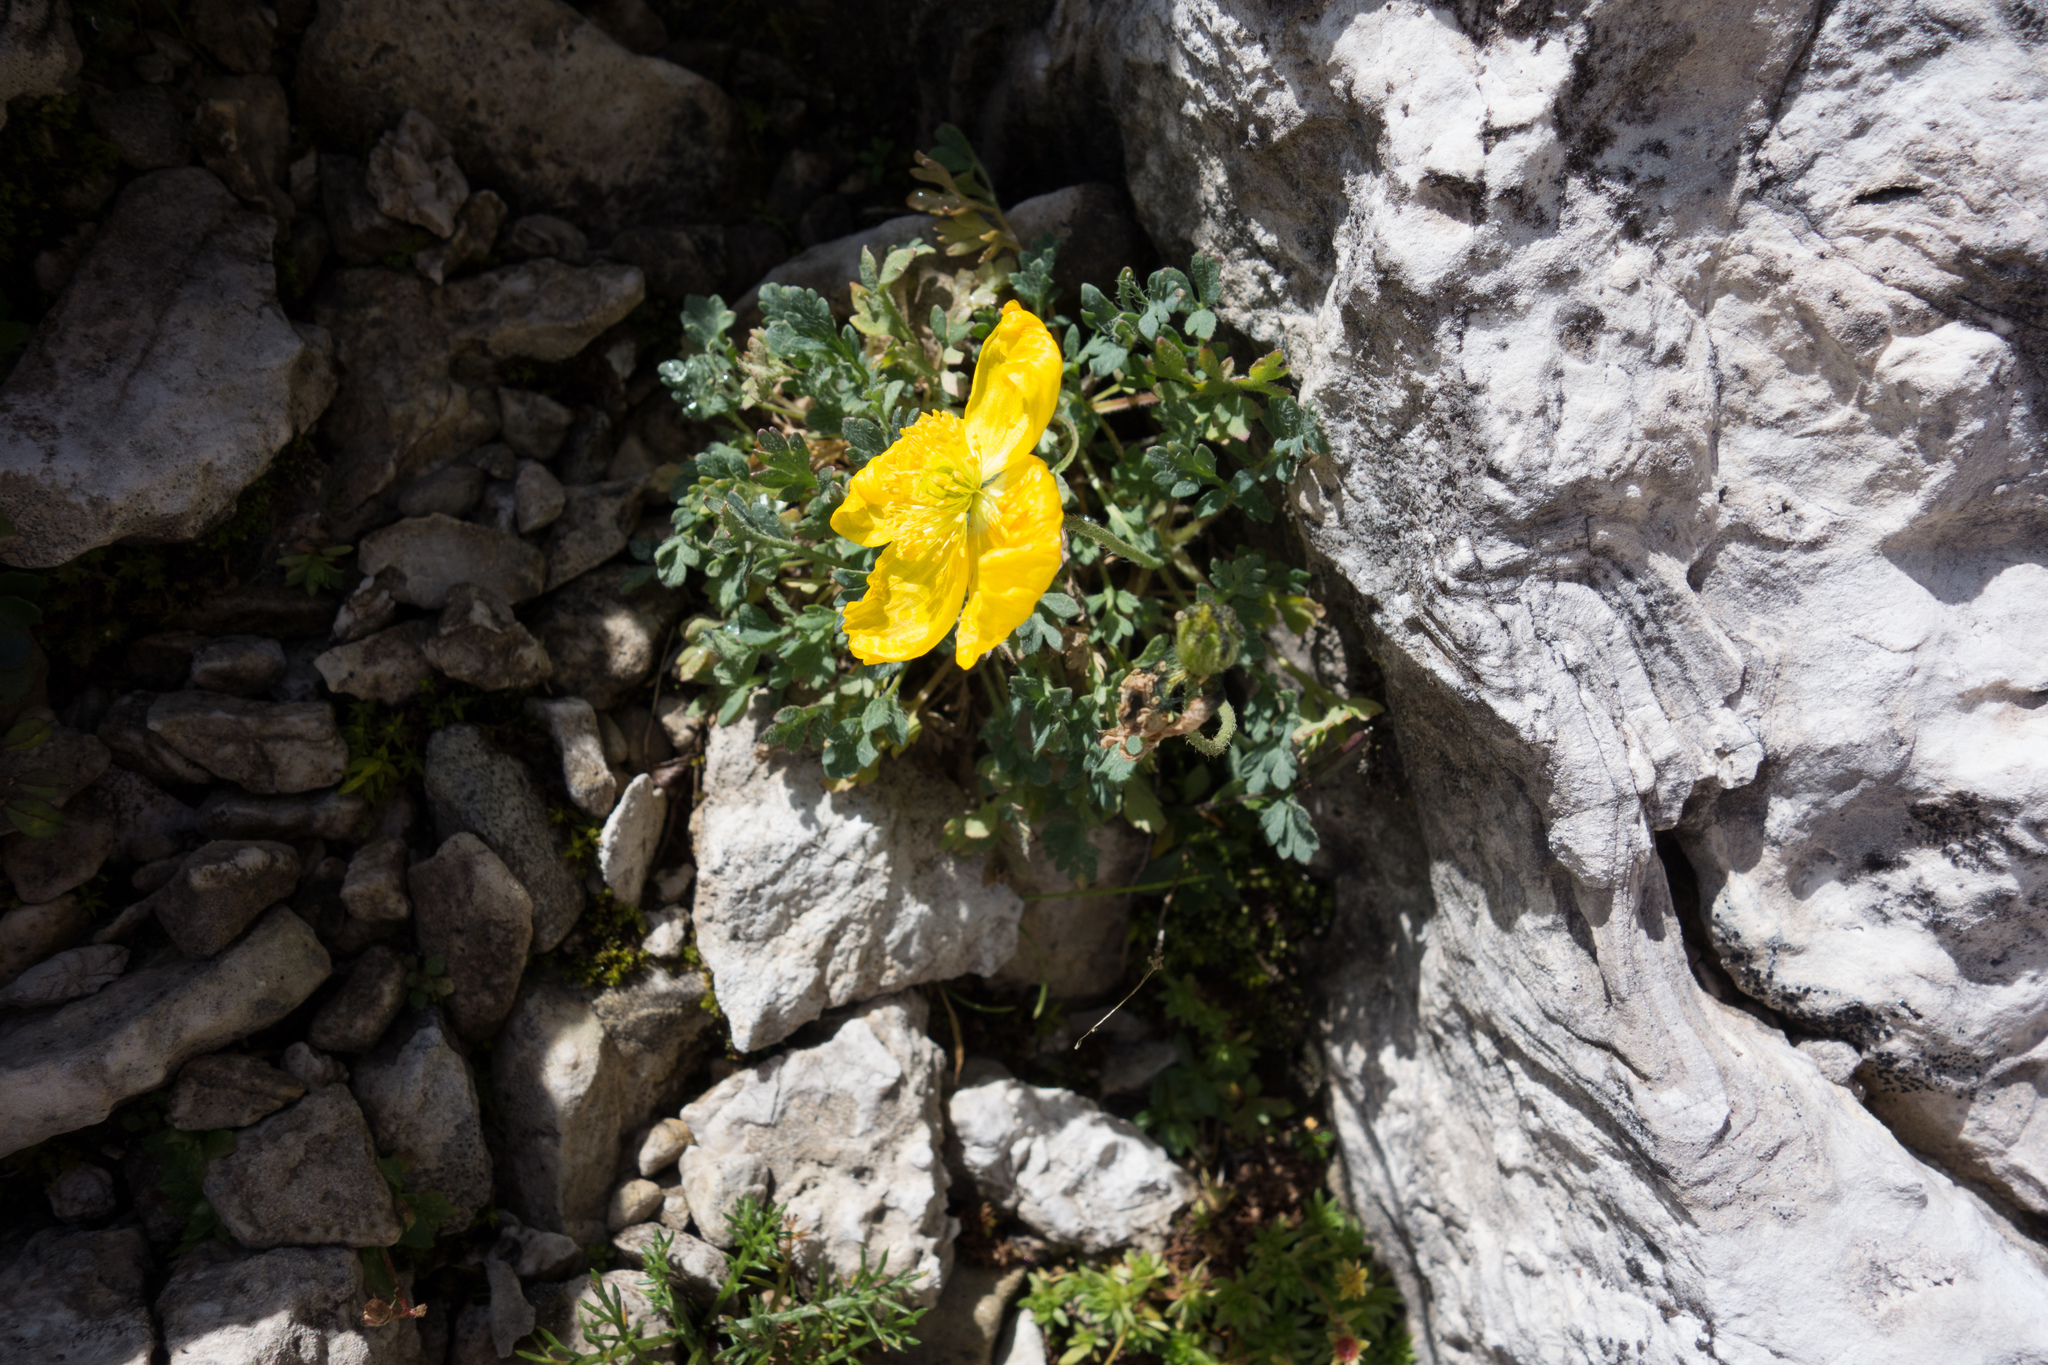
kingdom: Plantae
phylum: Tracheophyta
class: Magnoliopsida
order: Ranunculales
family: Papaveraceae
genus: Papaver
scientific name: Papaver alpinum
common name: Austrian poppy
